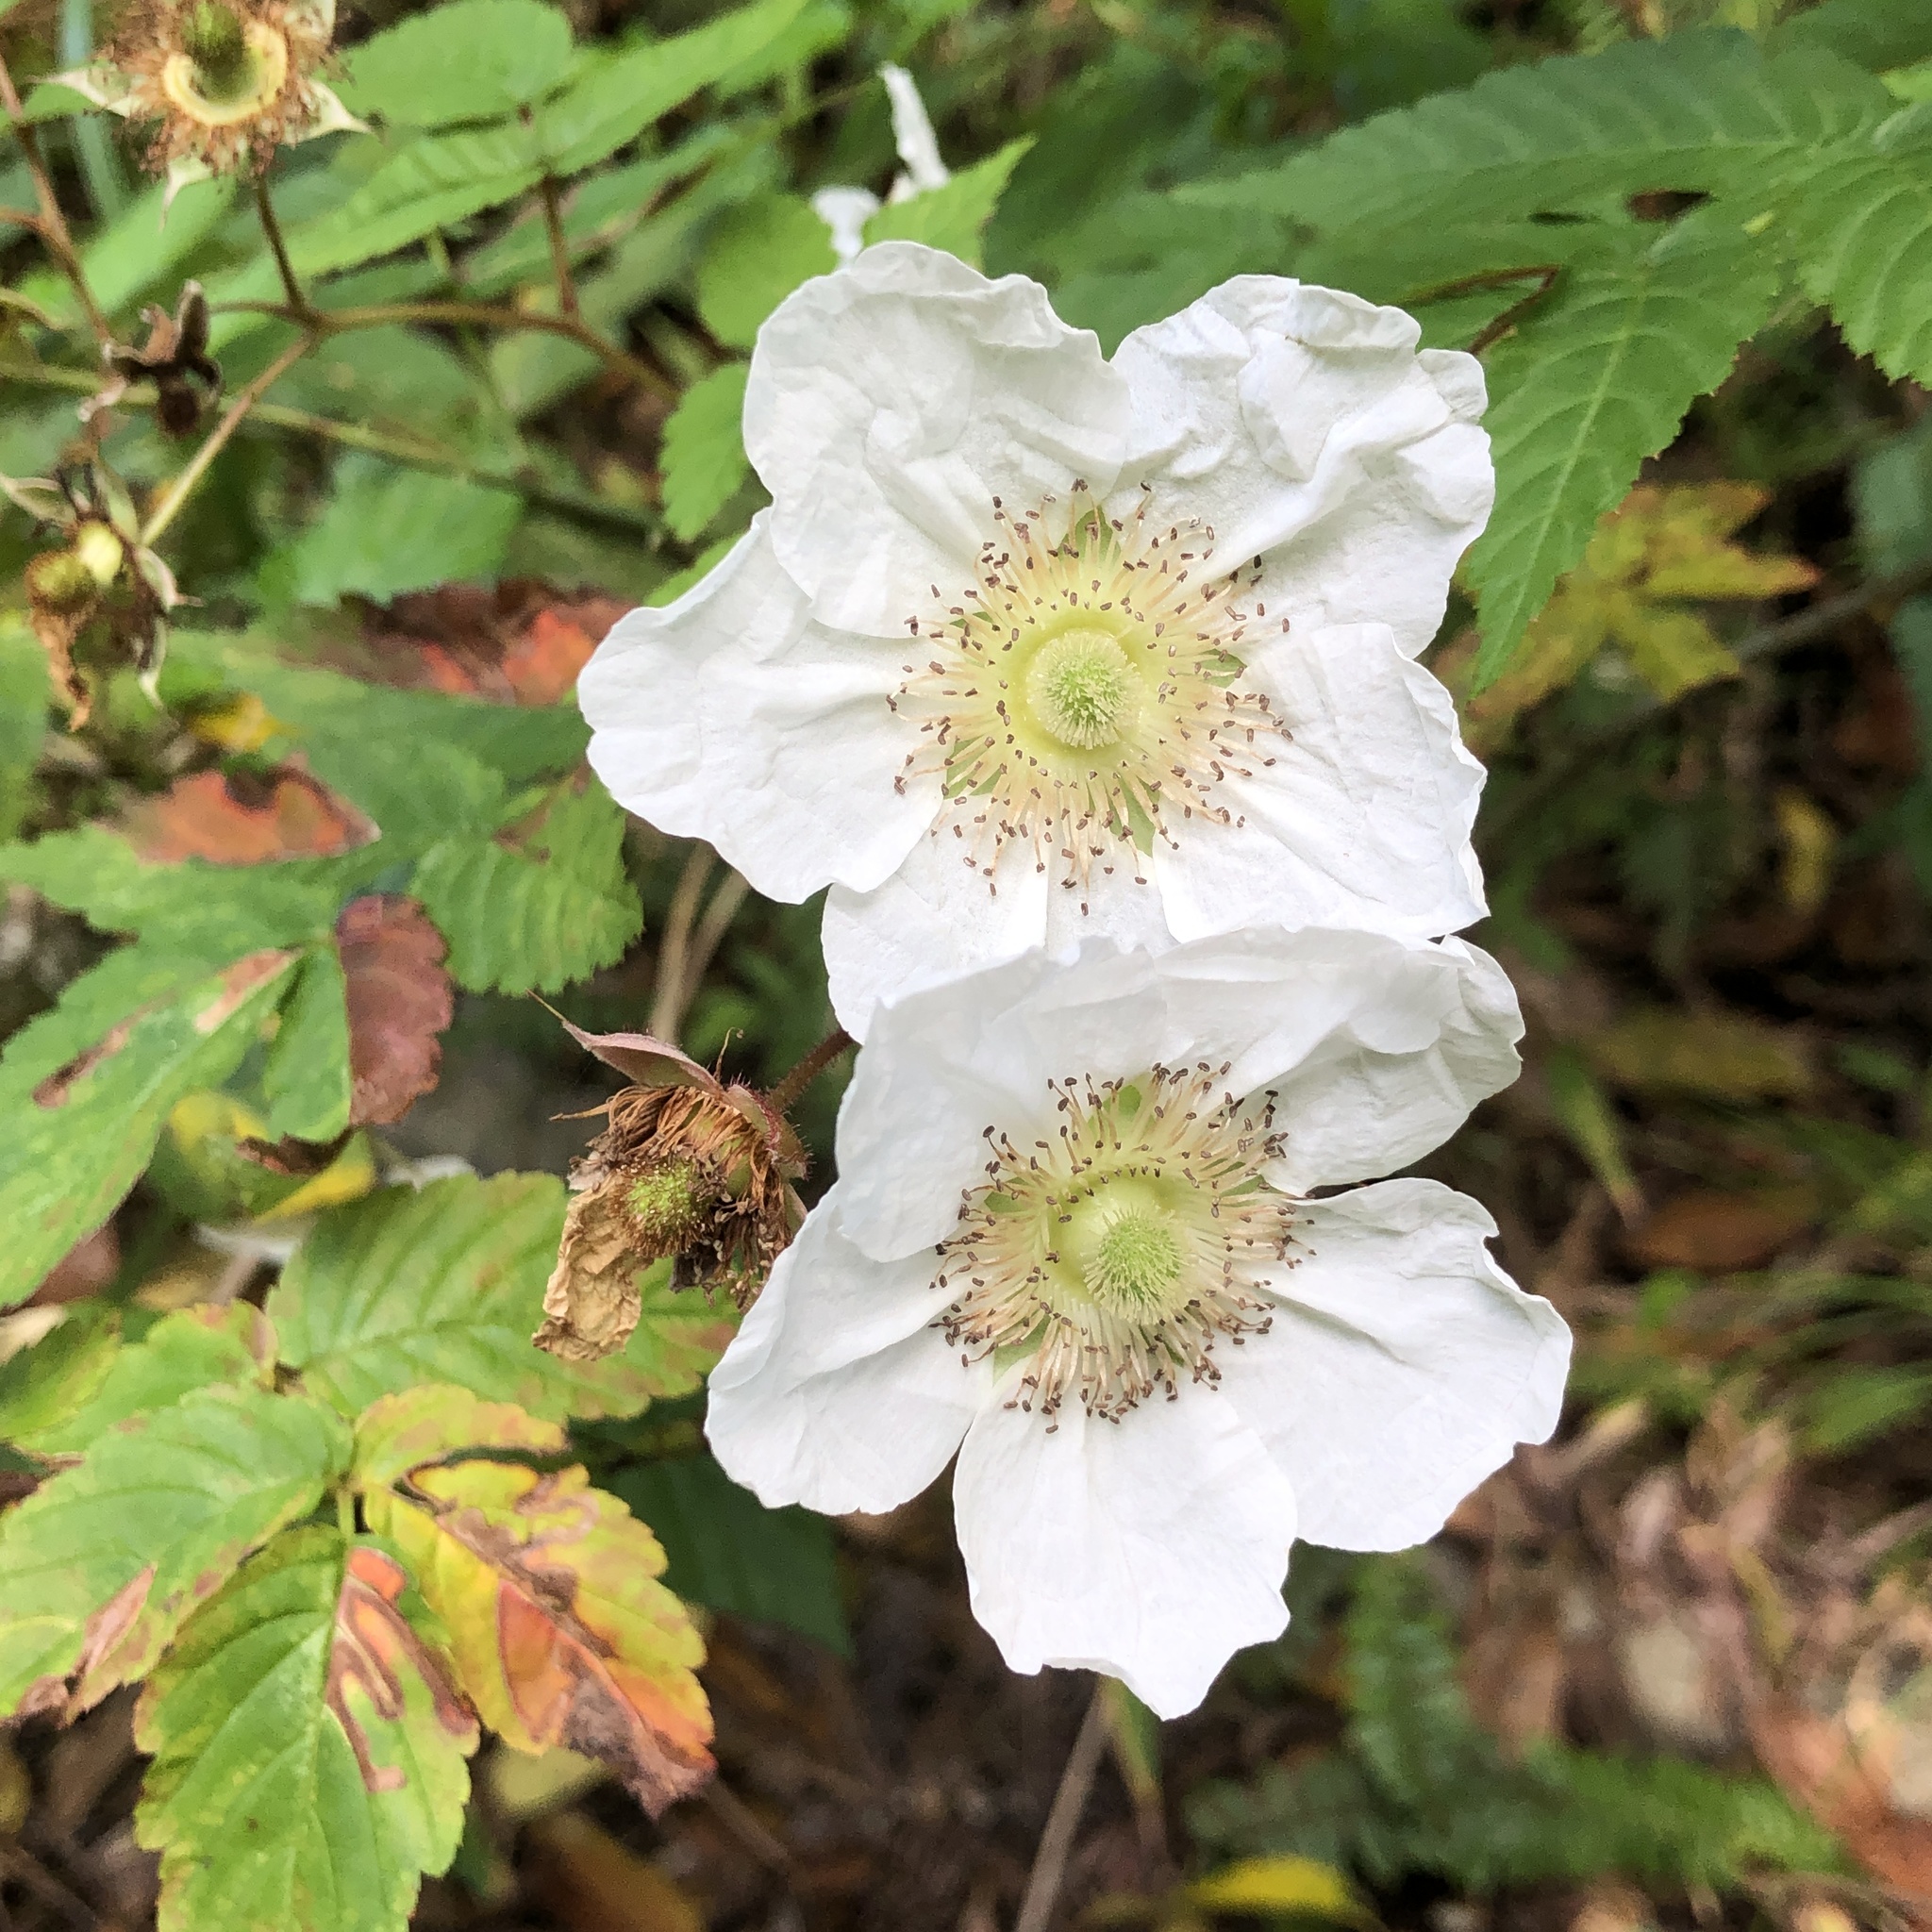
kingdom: Plantae
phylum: Tracheophyta
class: Magnoliopsida
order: Rosales
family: Rosaceae
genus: Rubus
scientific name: Rubus okinawensis
